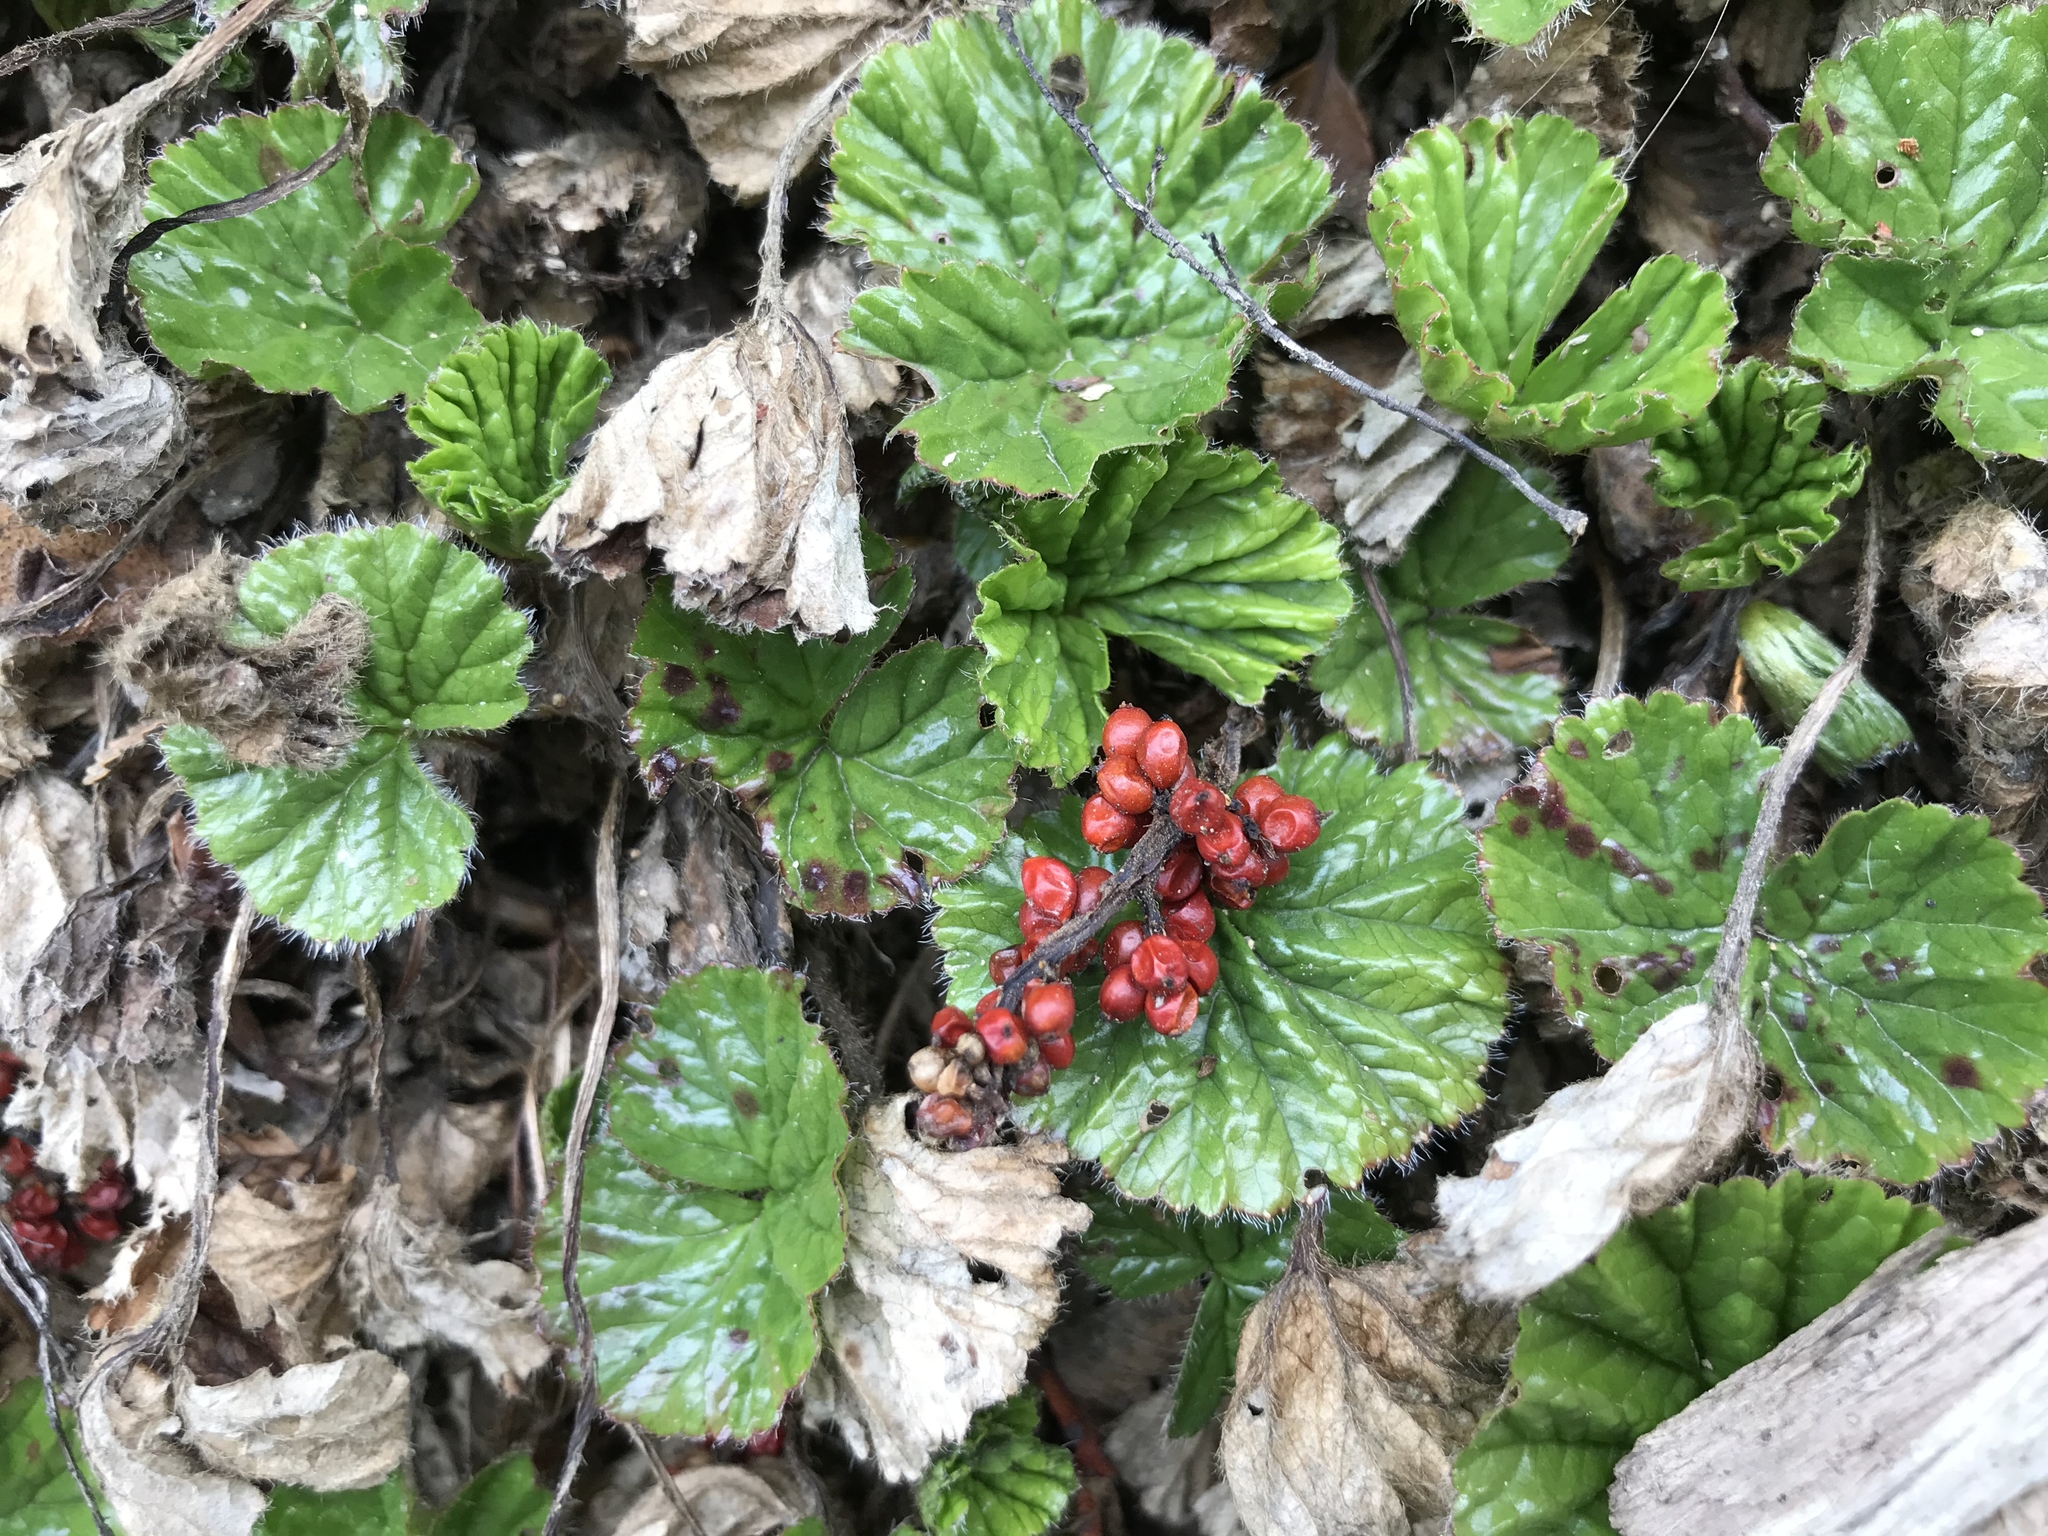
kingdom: Plantae
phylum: Tracheophyta
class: Magnoliopsida
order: Gunnerales
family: Gunneraceae
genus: Gunnera
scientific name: Gunnera magellanica
